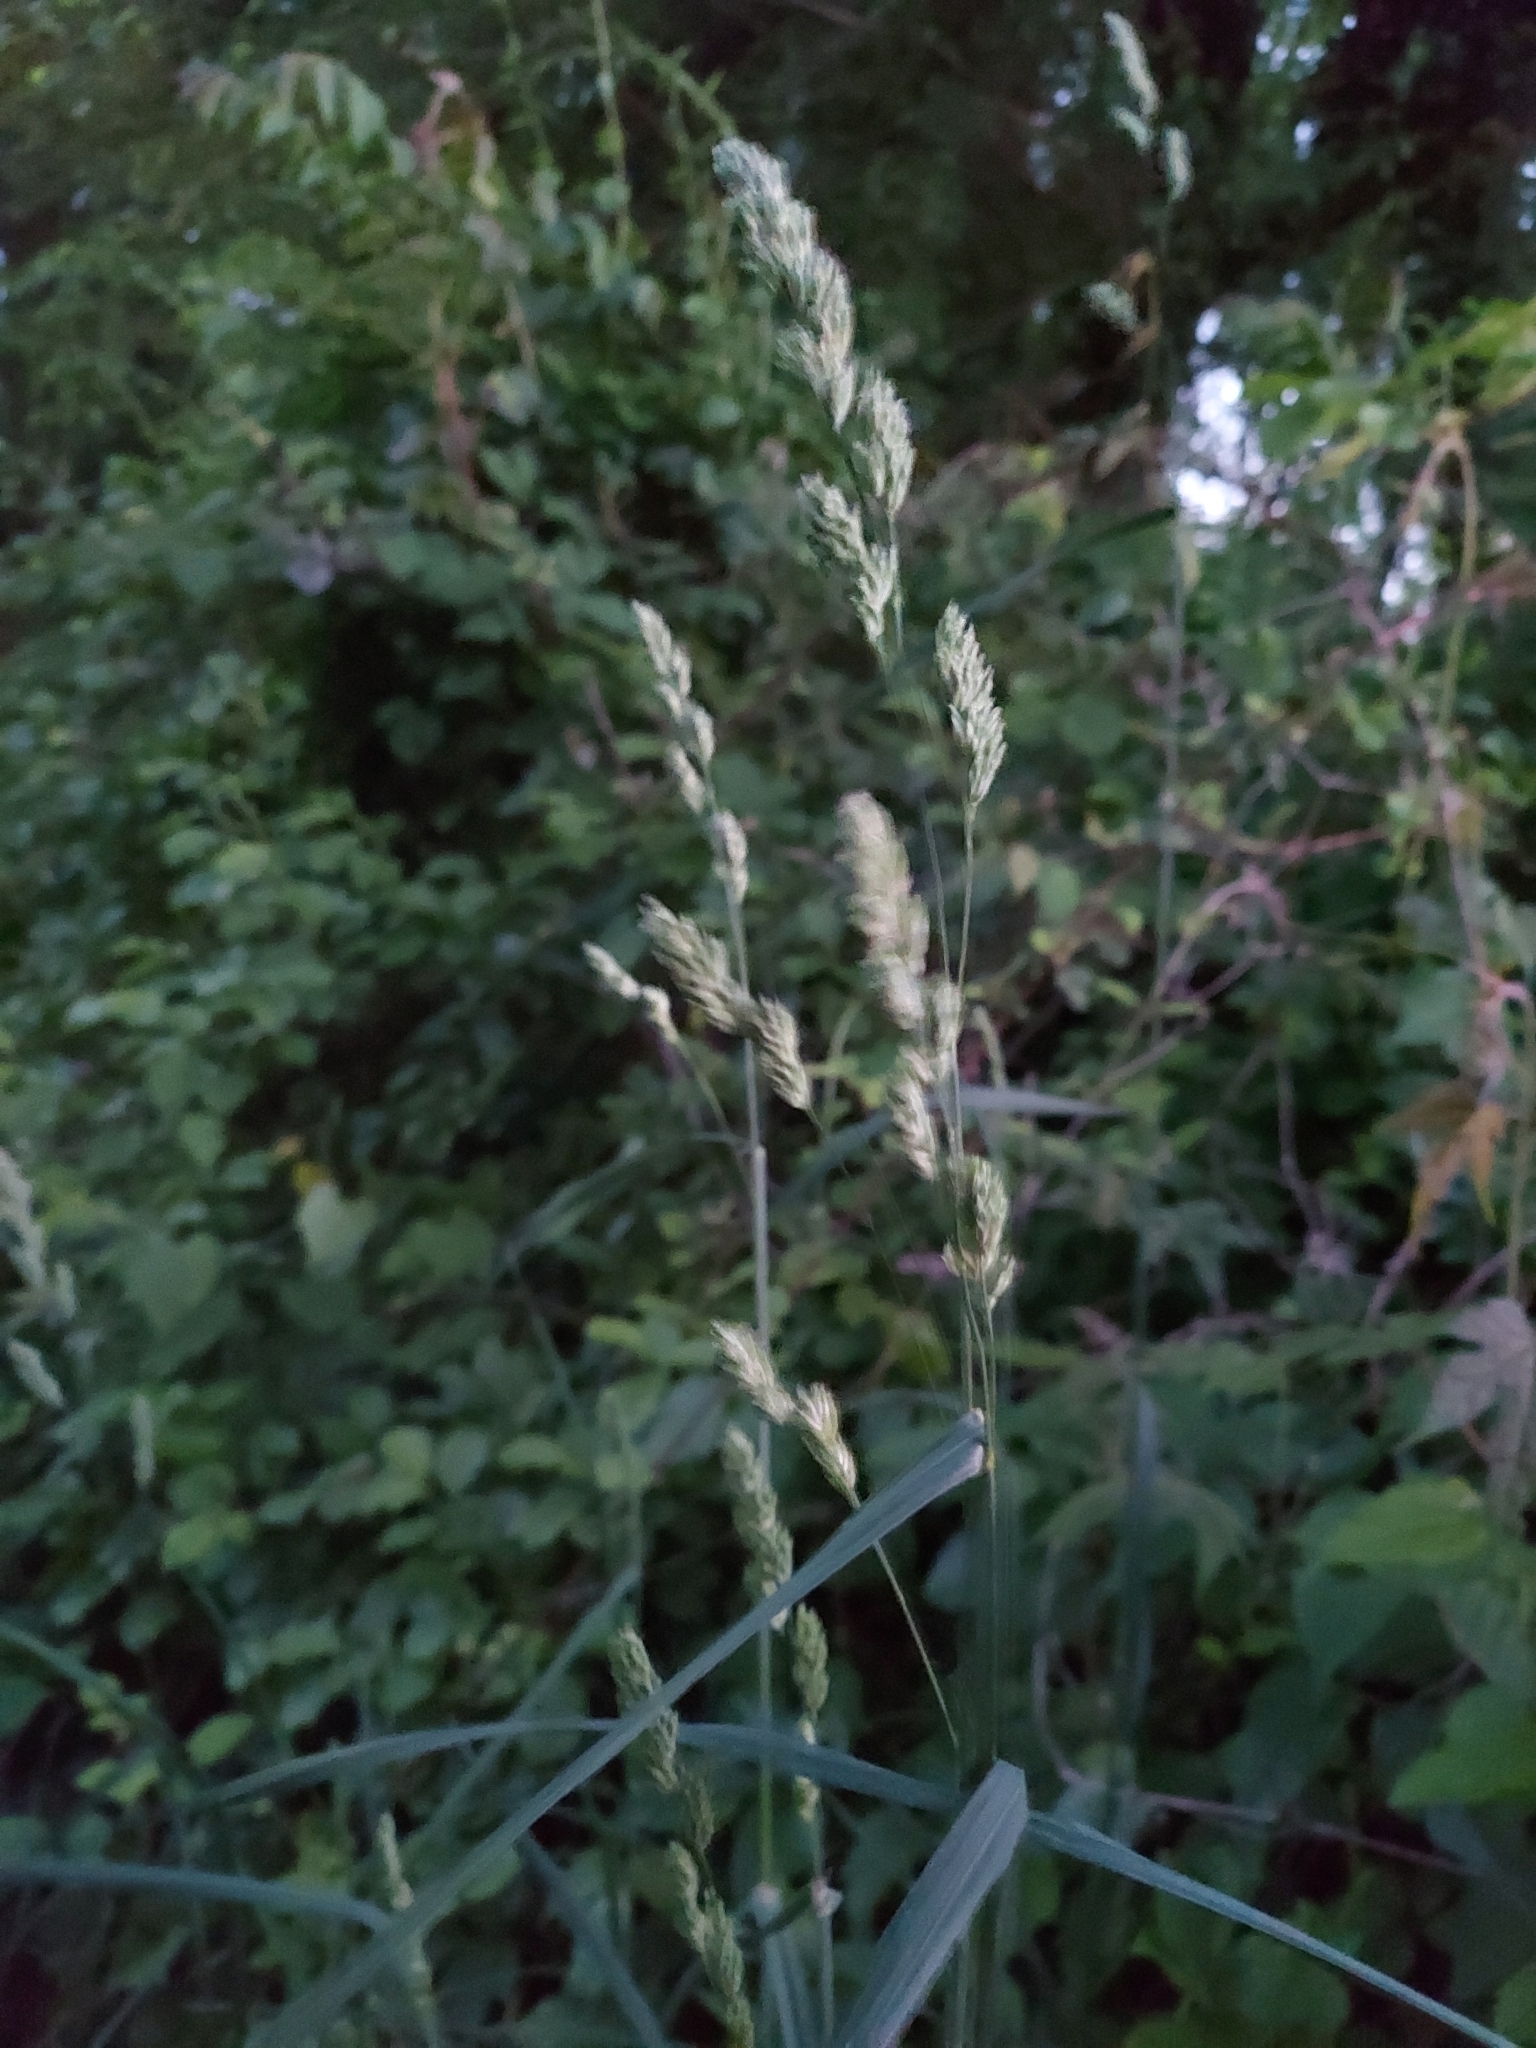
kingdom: Plantae
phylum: Tracheophyta
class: Liliopsida
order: Poales
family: Poaceae
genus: Dactylis
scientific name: Dactylis glomerata
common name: Orchardgrass
